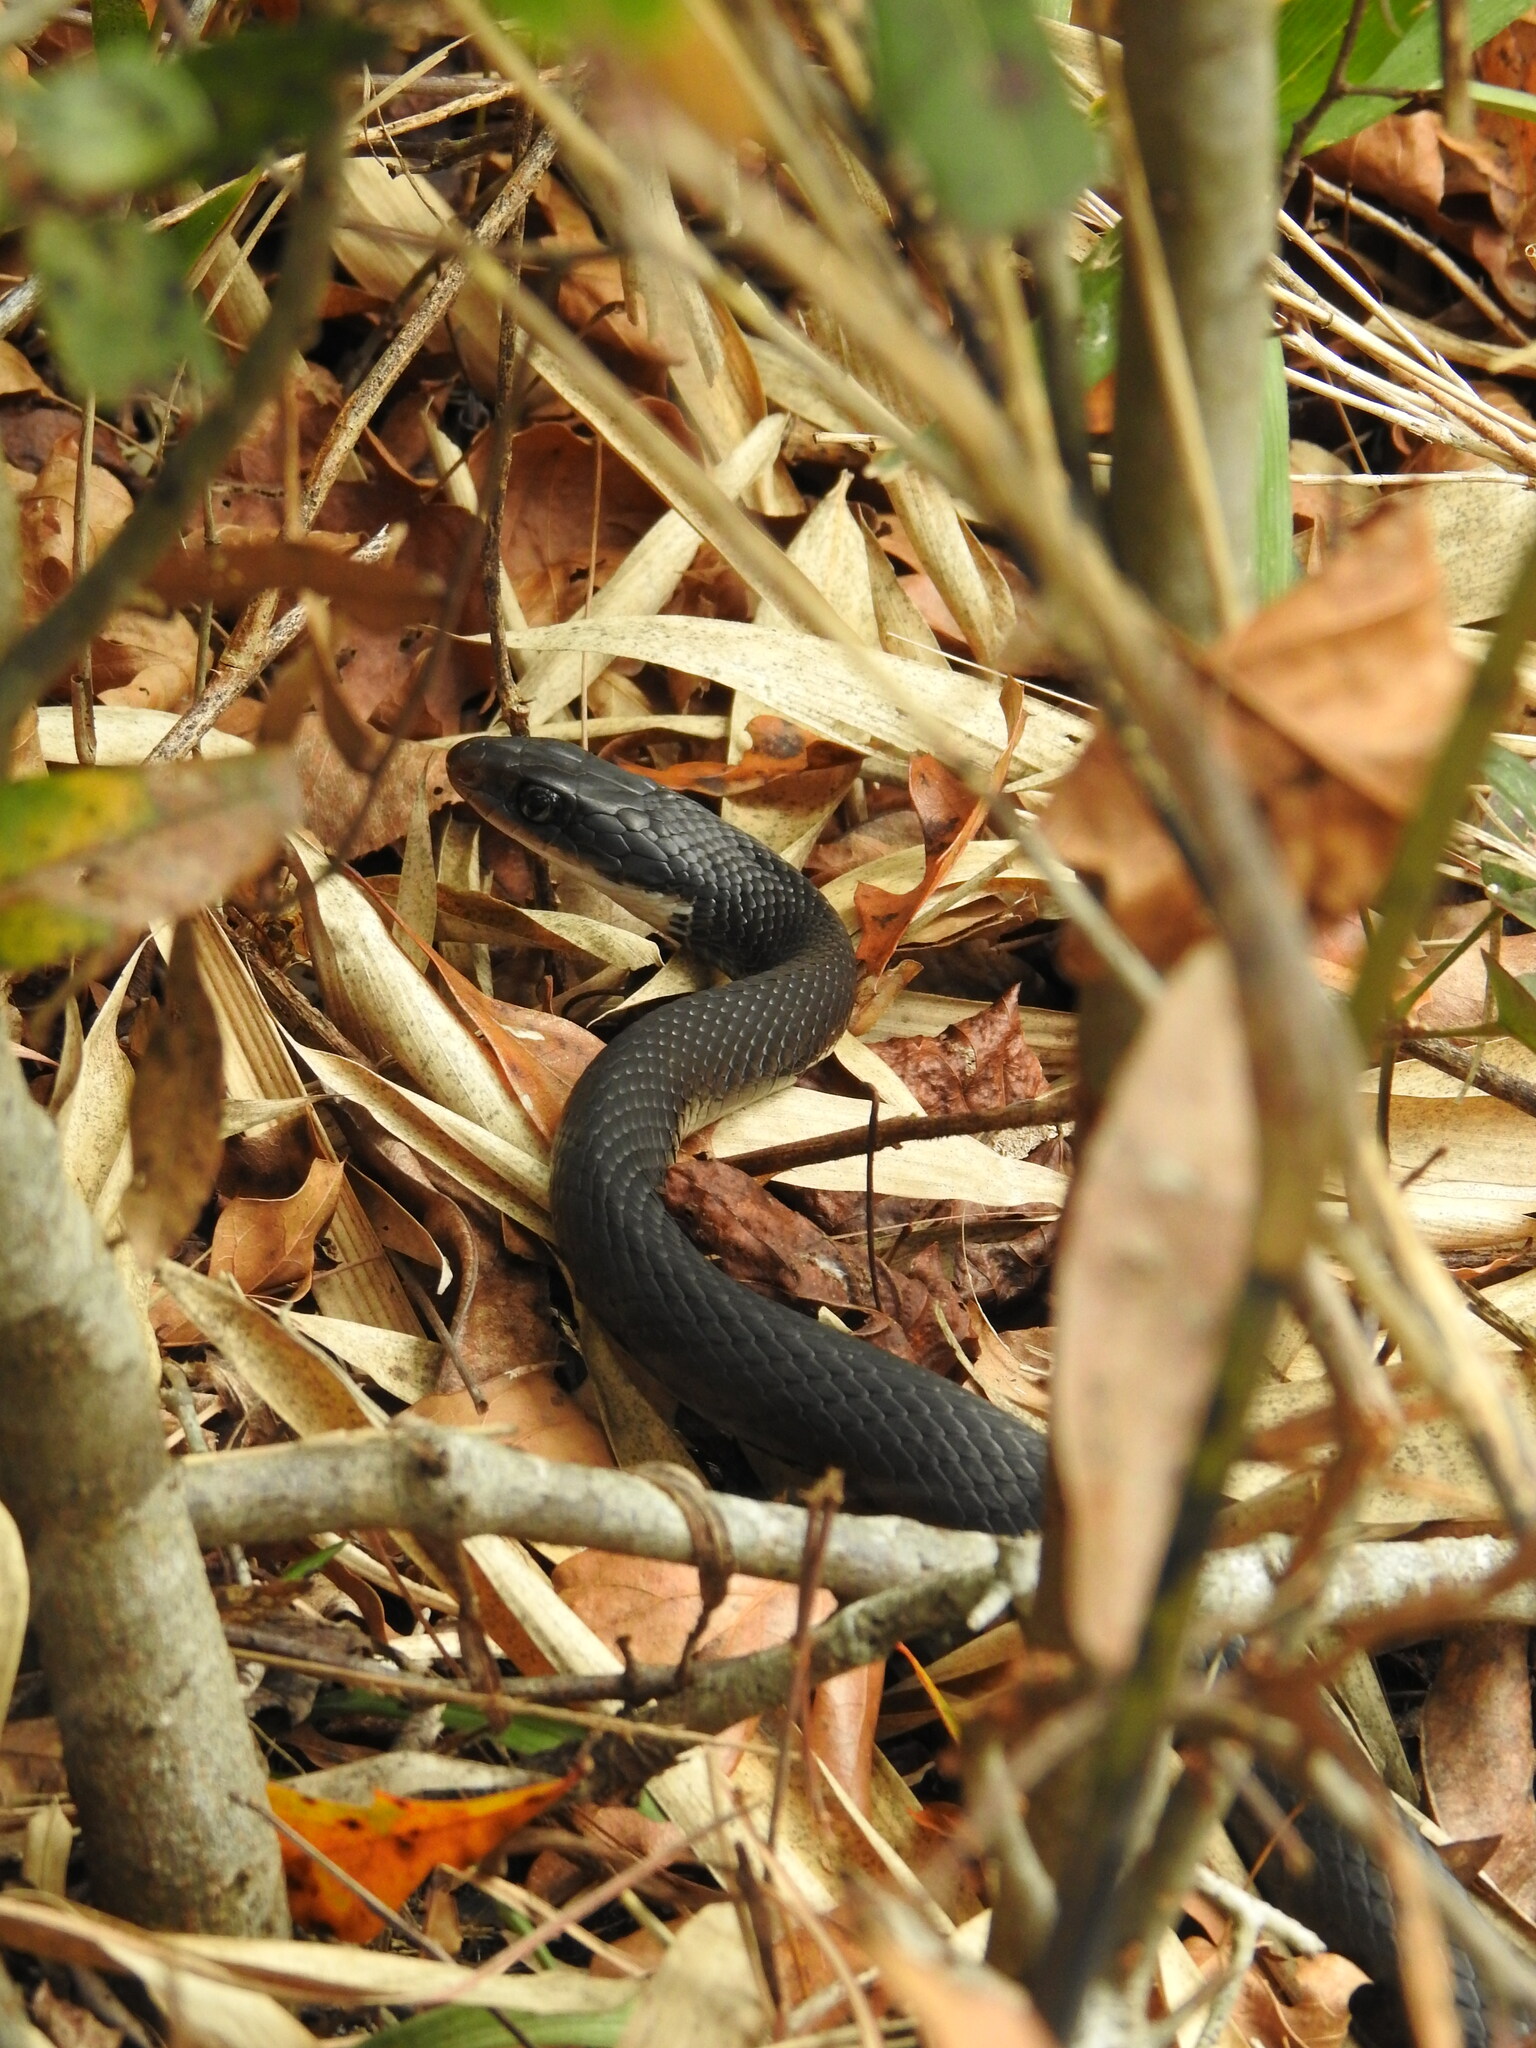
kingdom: Animalia
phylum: Chordata
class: Squamata
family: Colubridae
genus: Coluber
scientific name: Coluber constrictor
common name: Eastern racer
